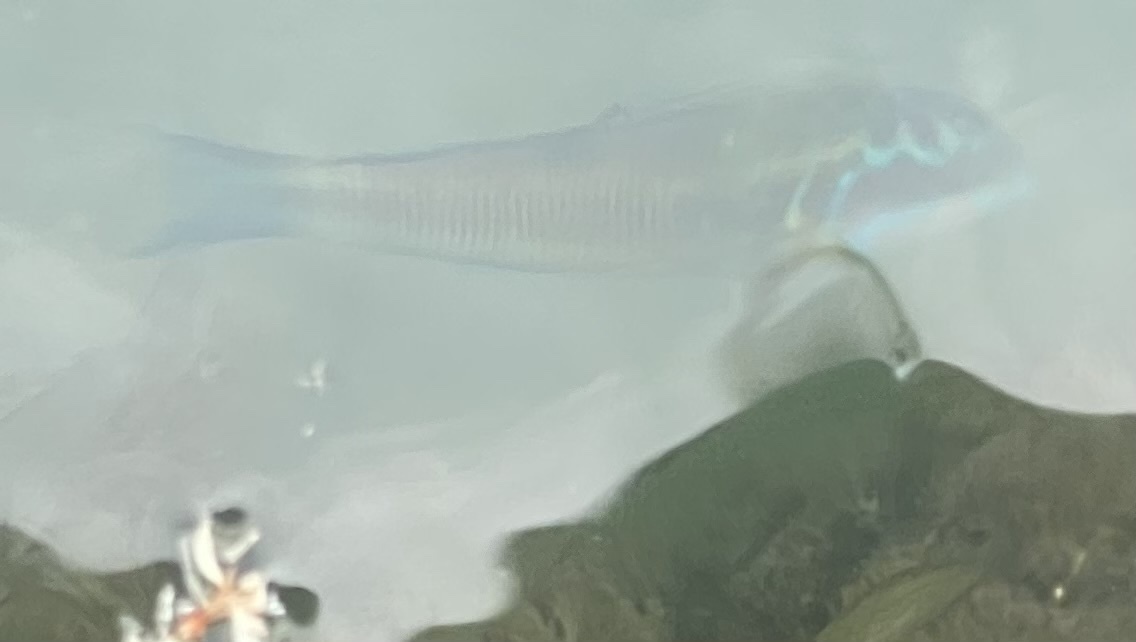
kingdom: Animalia
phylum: Chordata
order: Perciformes
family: Labridae
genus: Thalassoma
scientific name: Thalassoma pavo
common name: Ornate wrasse
